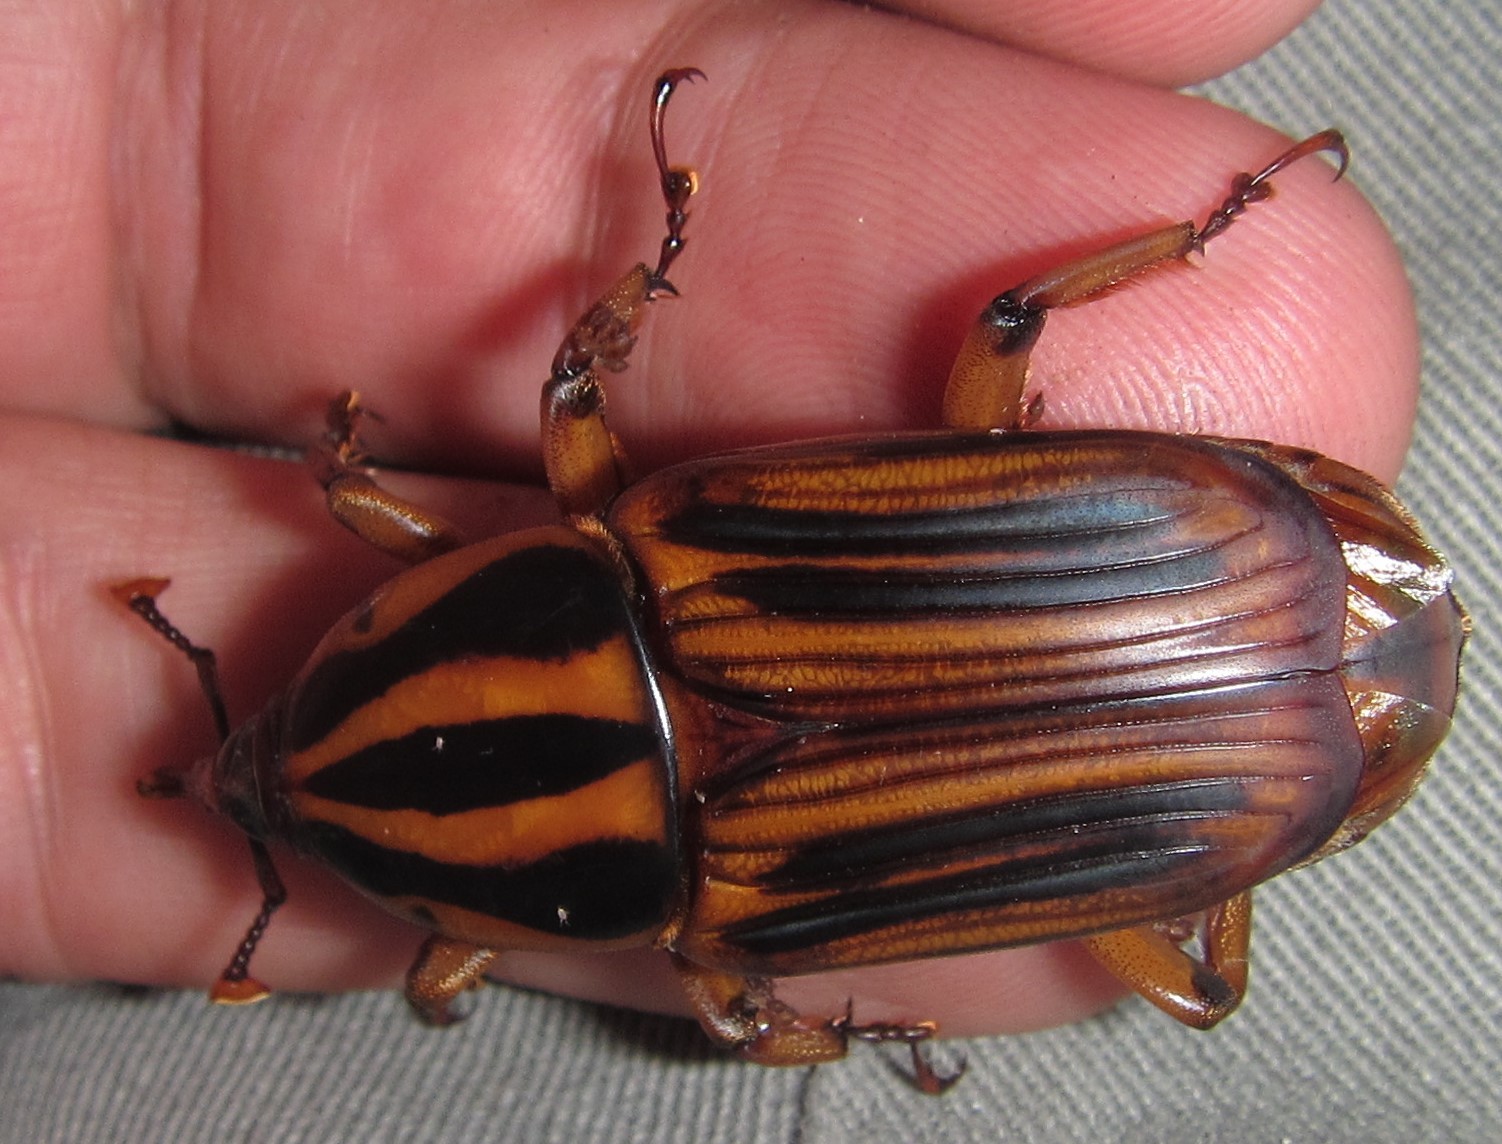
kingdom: Animalia
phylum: Arthropoda
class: Insecta
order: Coleoptera
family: Dryophthoridae
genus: Rhynchophorus
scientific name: Rhynchophorus phoenicis
